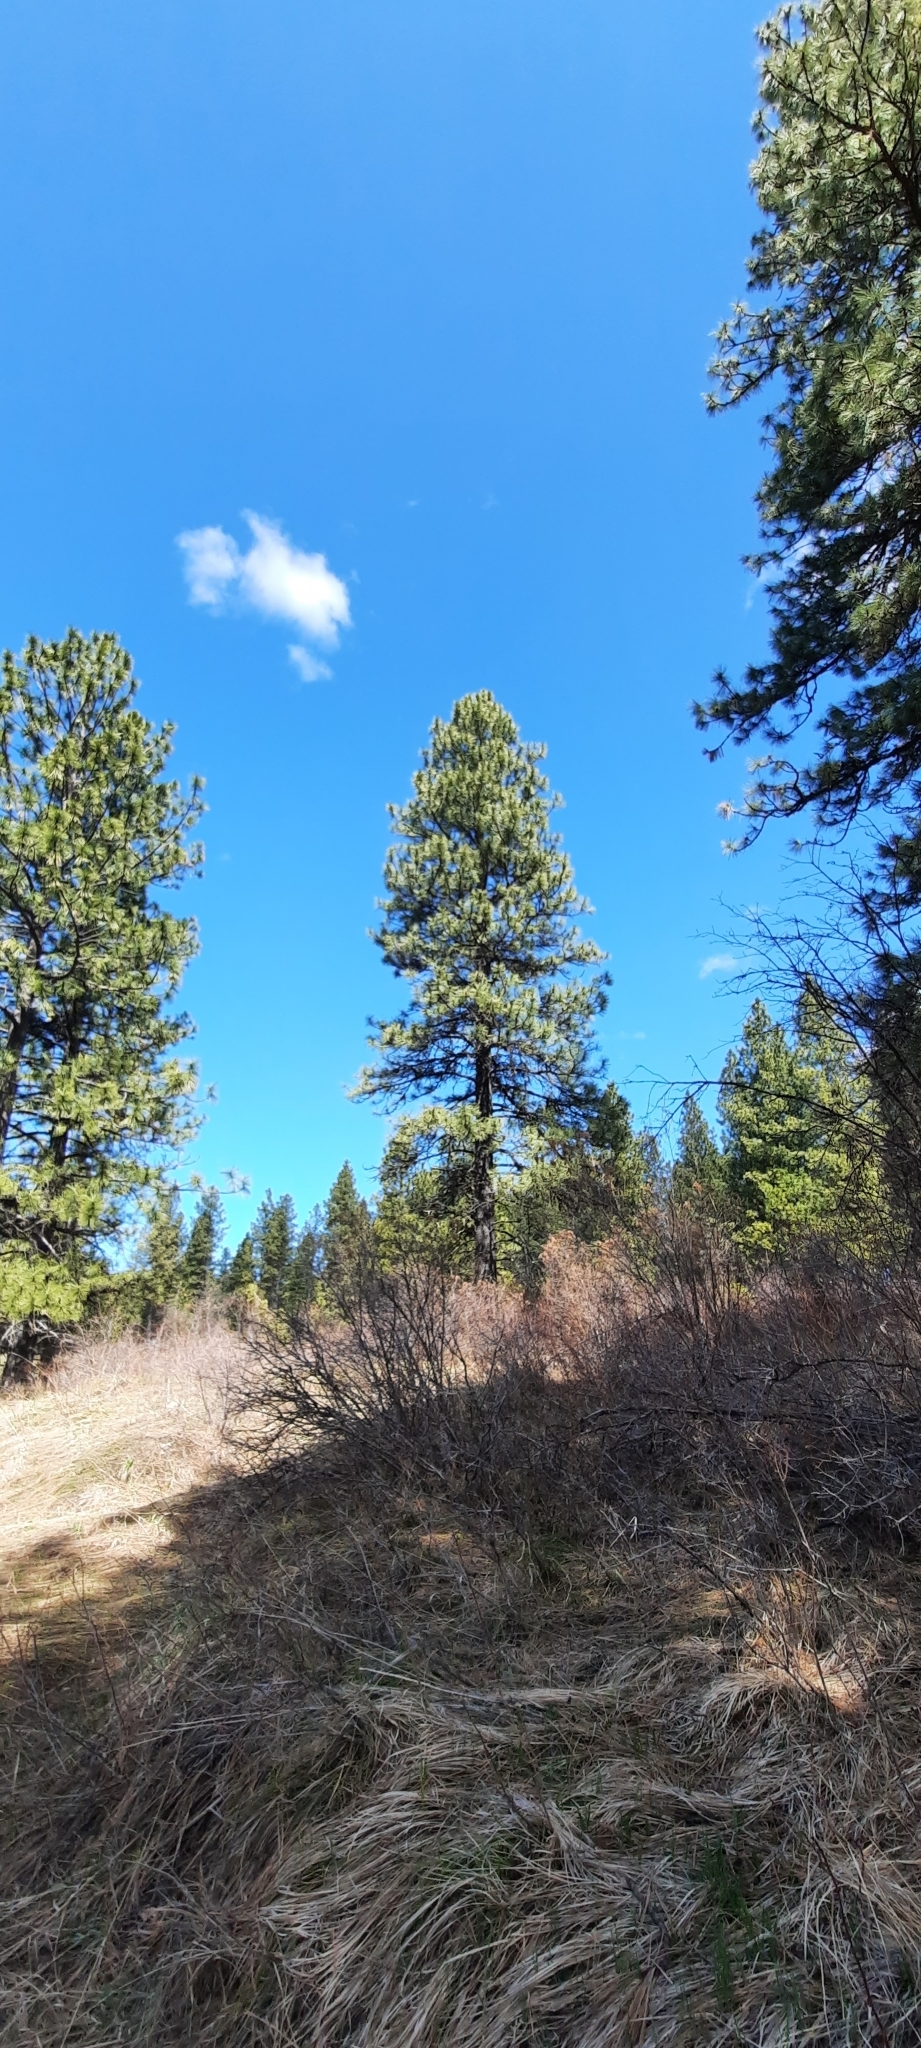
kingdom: Plantae
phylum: Tracheophyta
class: Pinopsida
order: Pinales
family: Pinaceae
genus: Pinus
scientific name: Pinus ponderosa
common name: Western yellow-pine
